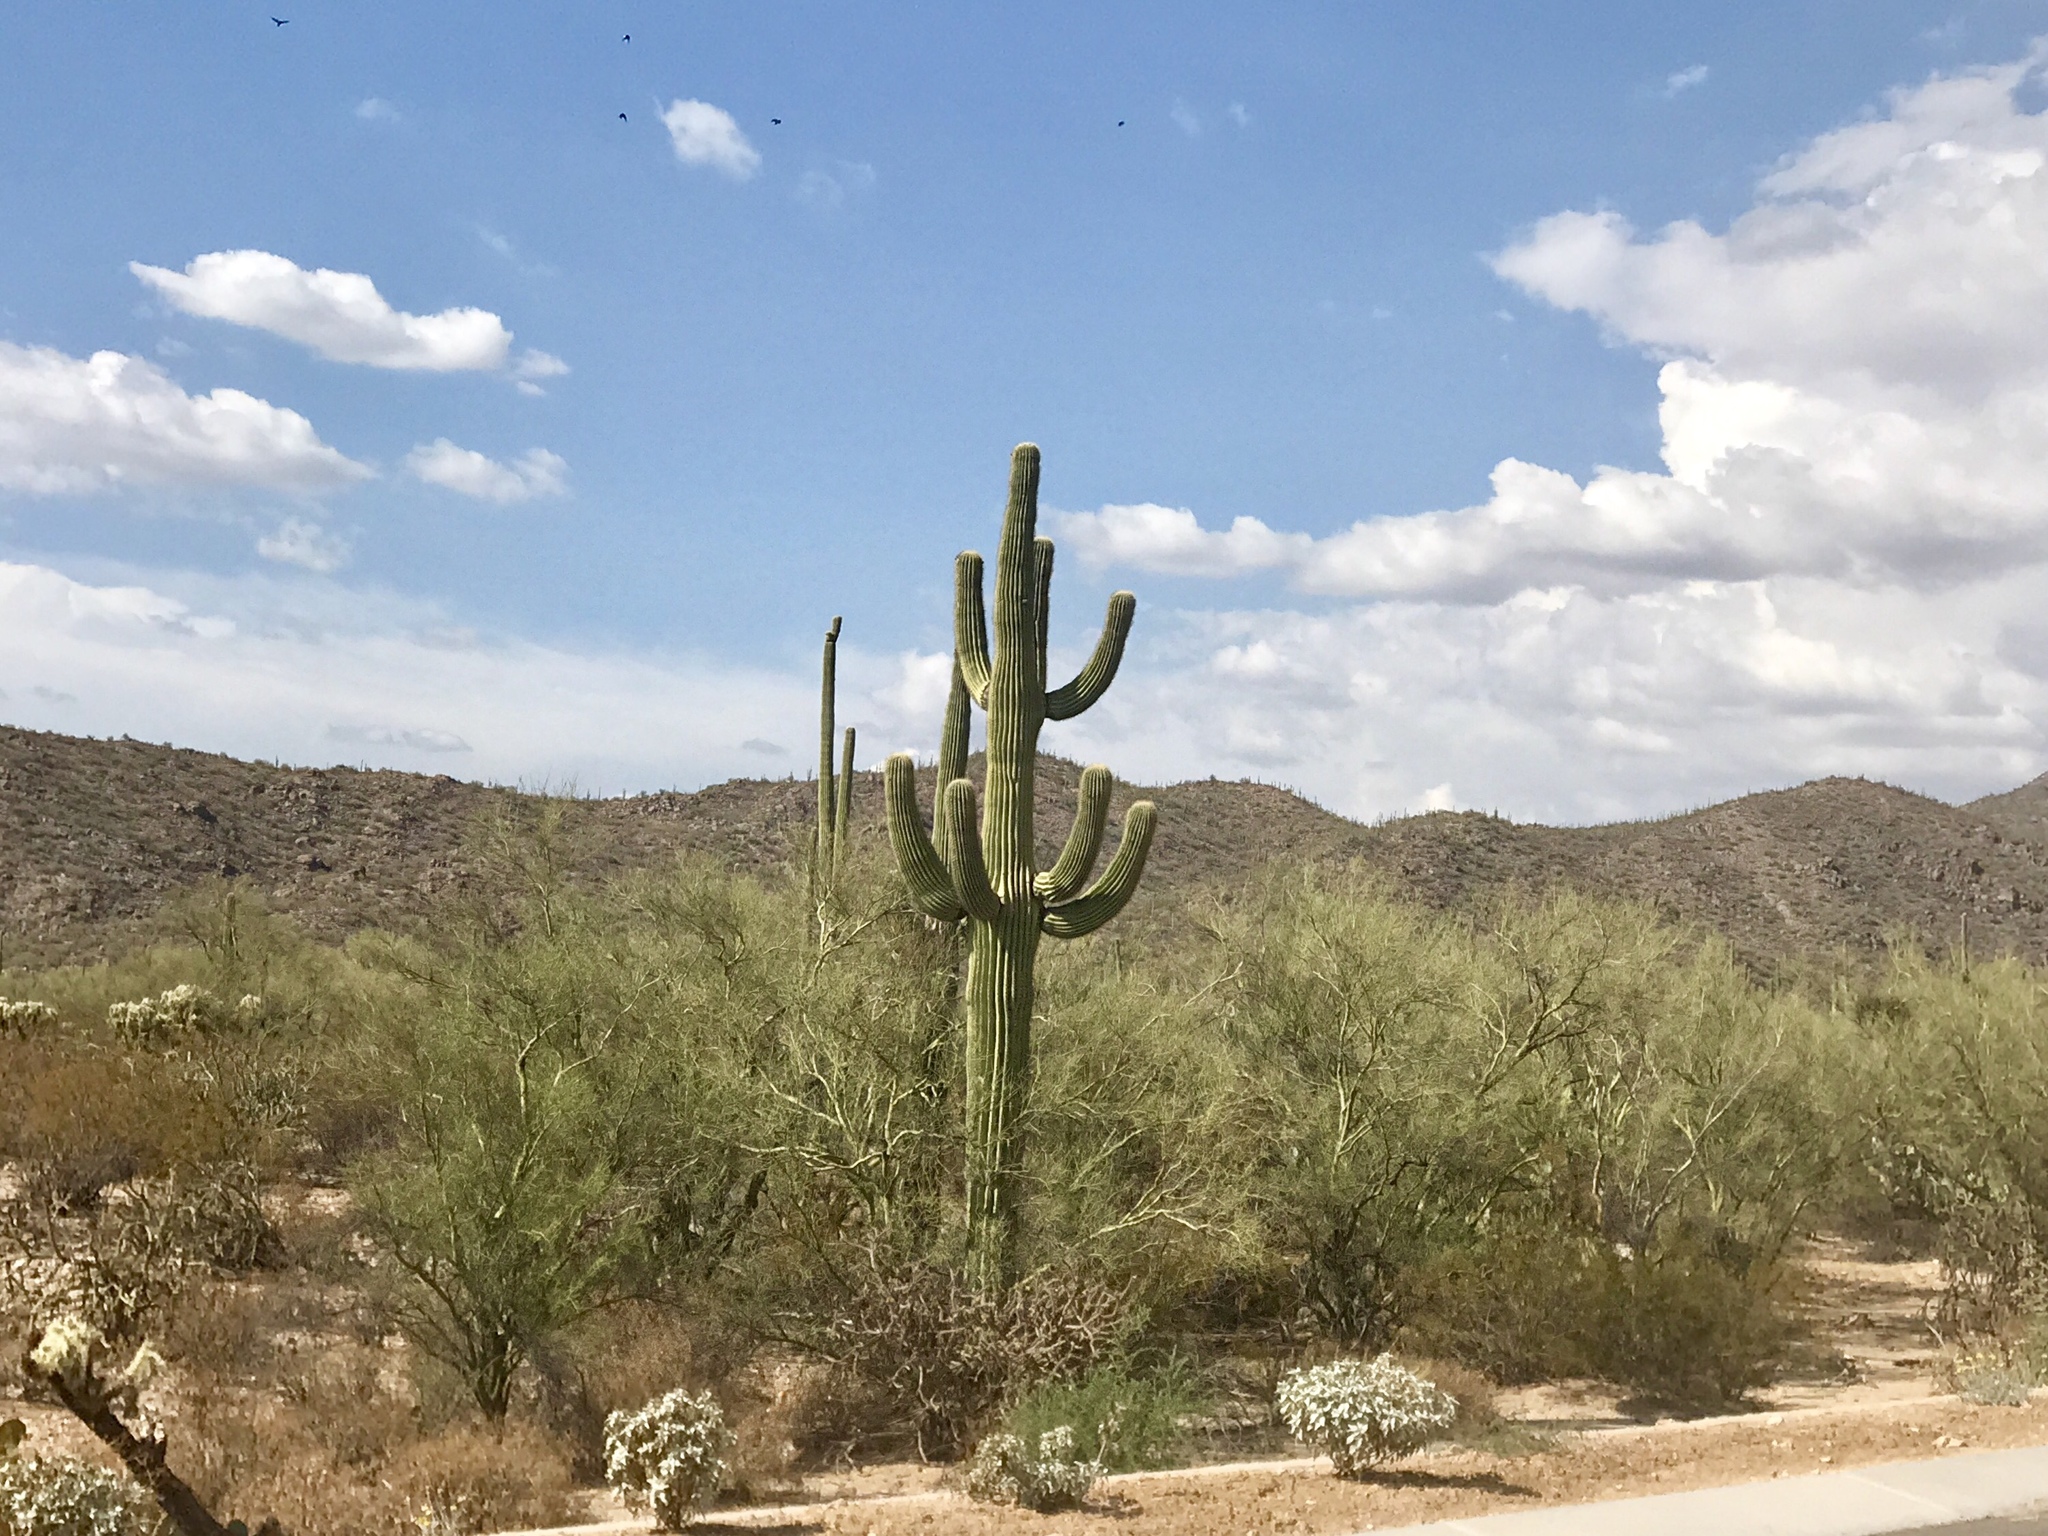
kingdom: Plantae
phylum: Tracheophyta
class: Magnoliopsida
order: Caryophyllales
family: Cactaceae
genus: Carnegiea
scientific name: Carnegiea gigantea
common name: Saguaro
